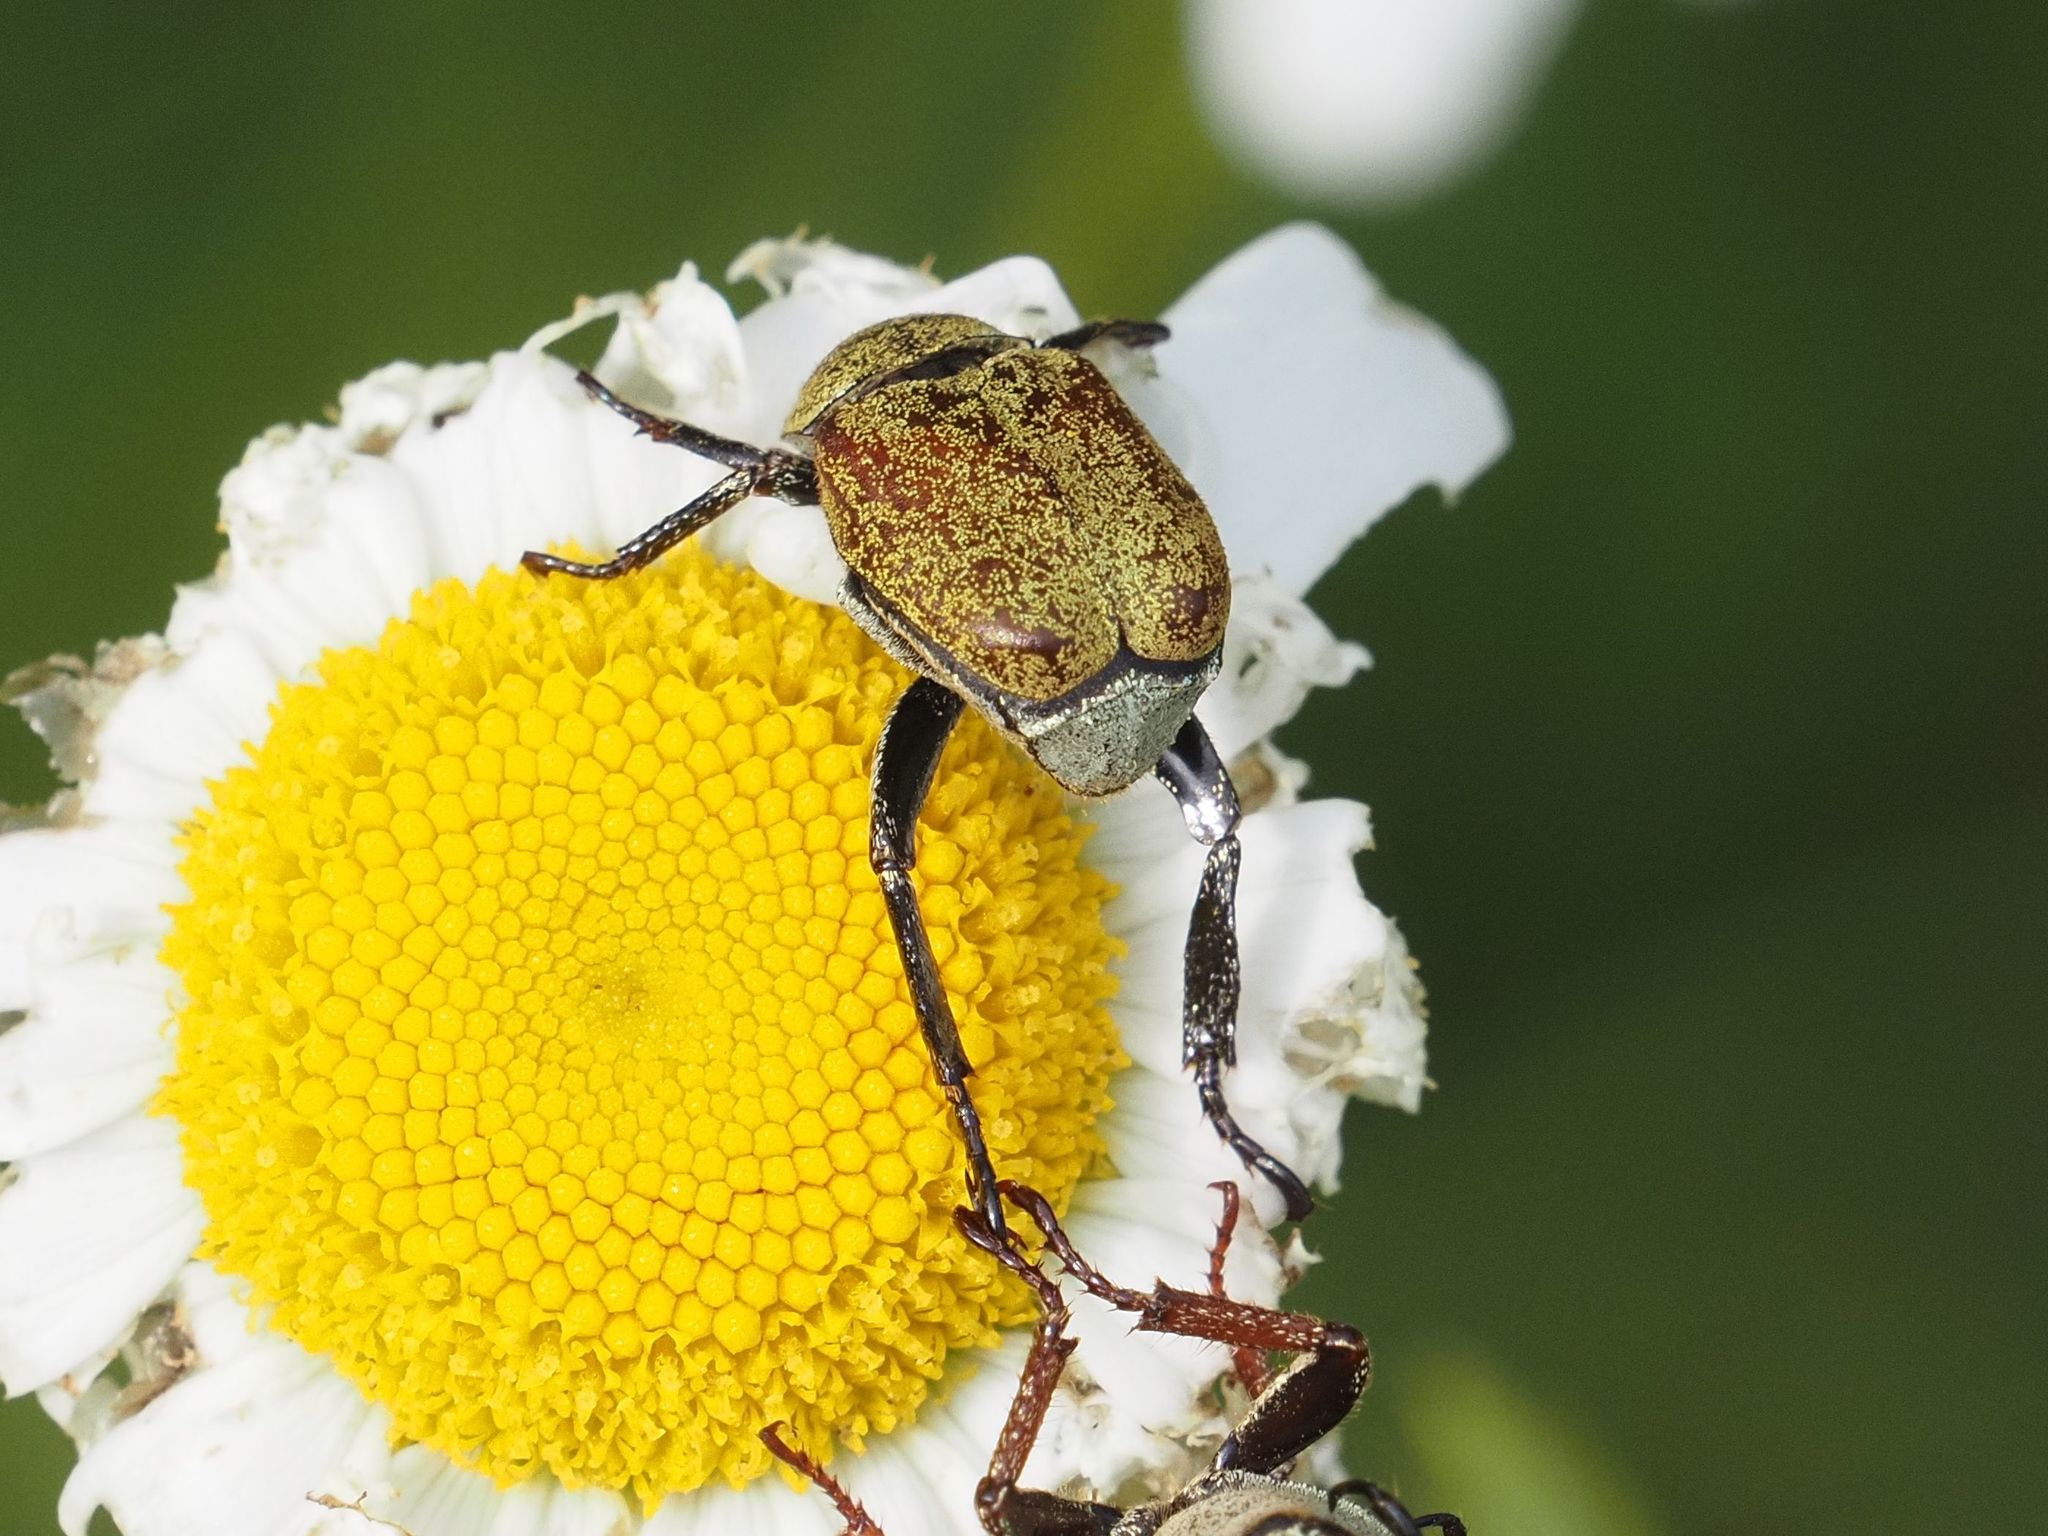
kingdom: Animalia
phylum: Arthropoda
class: Insecta
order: Coleoptera
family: Scarabaeidae
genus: Hoplia
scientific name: Hoplia argentea
